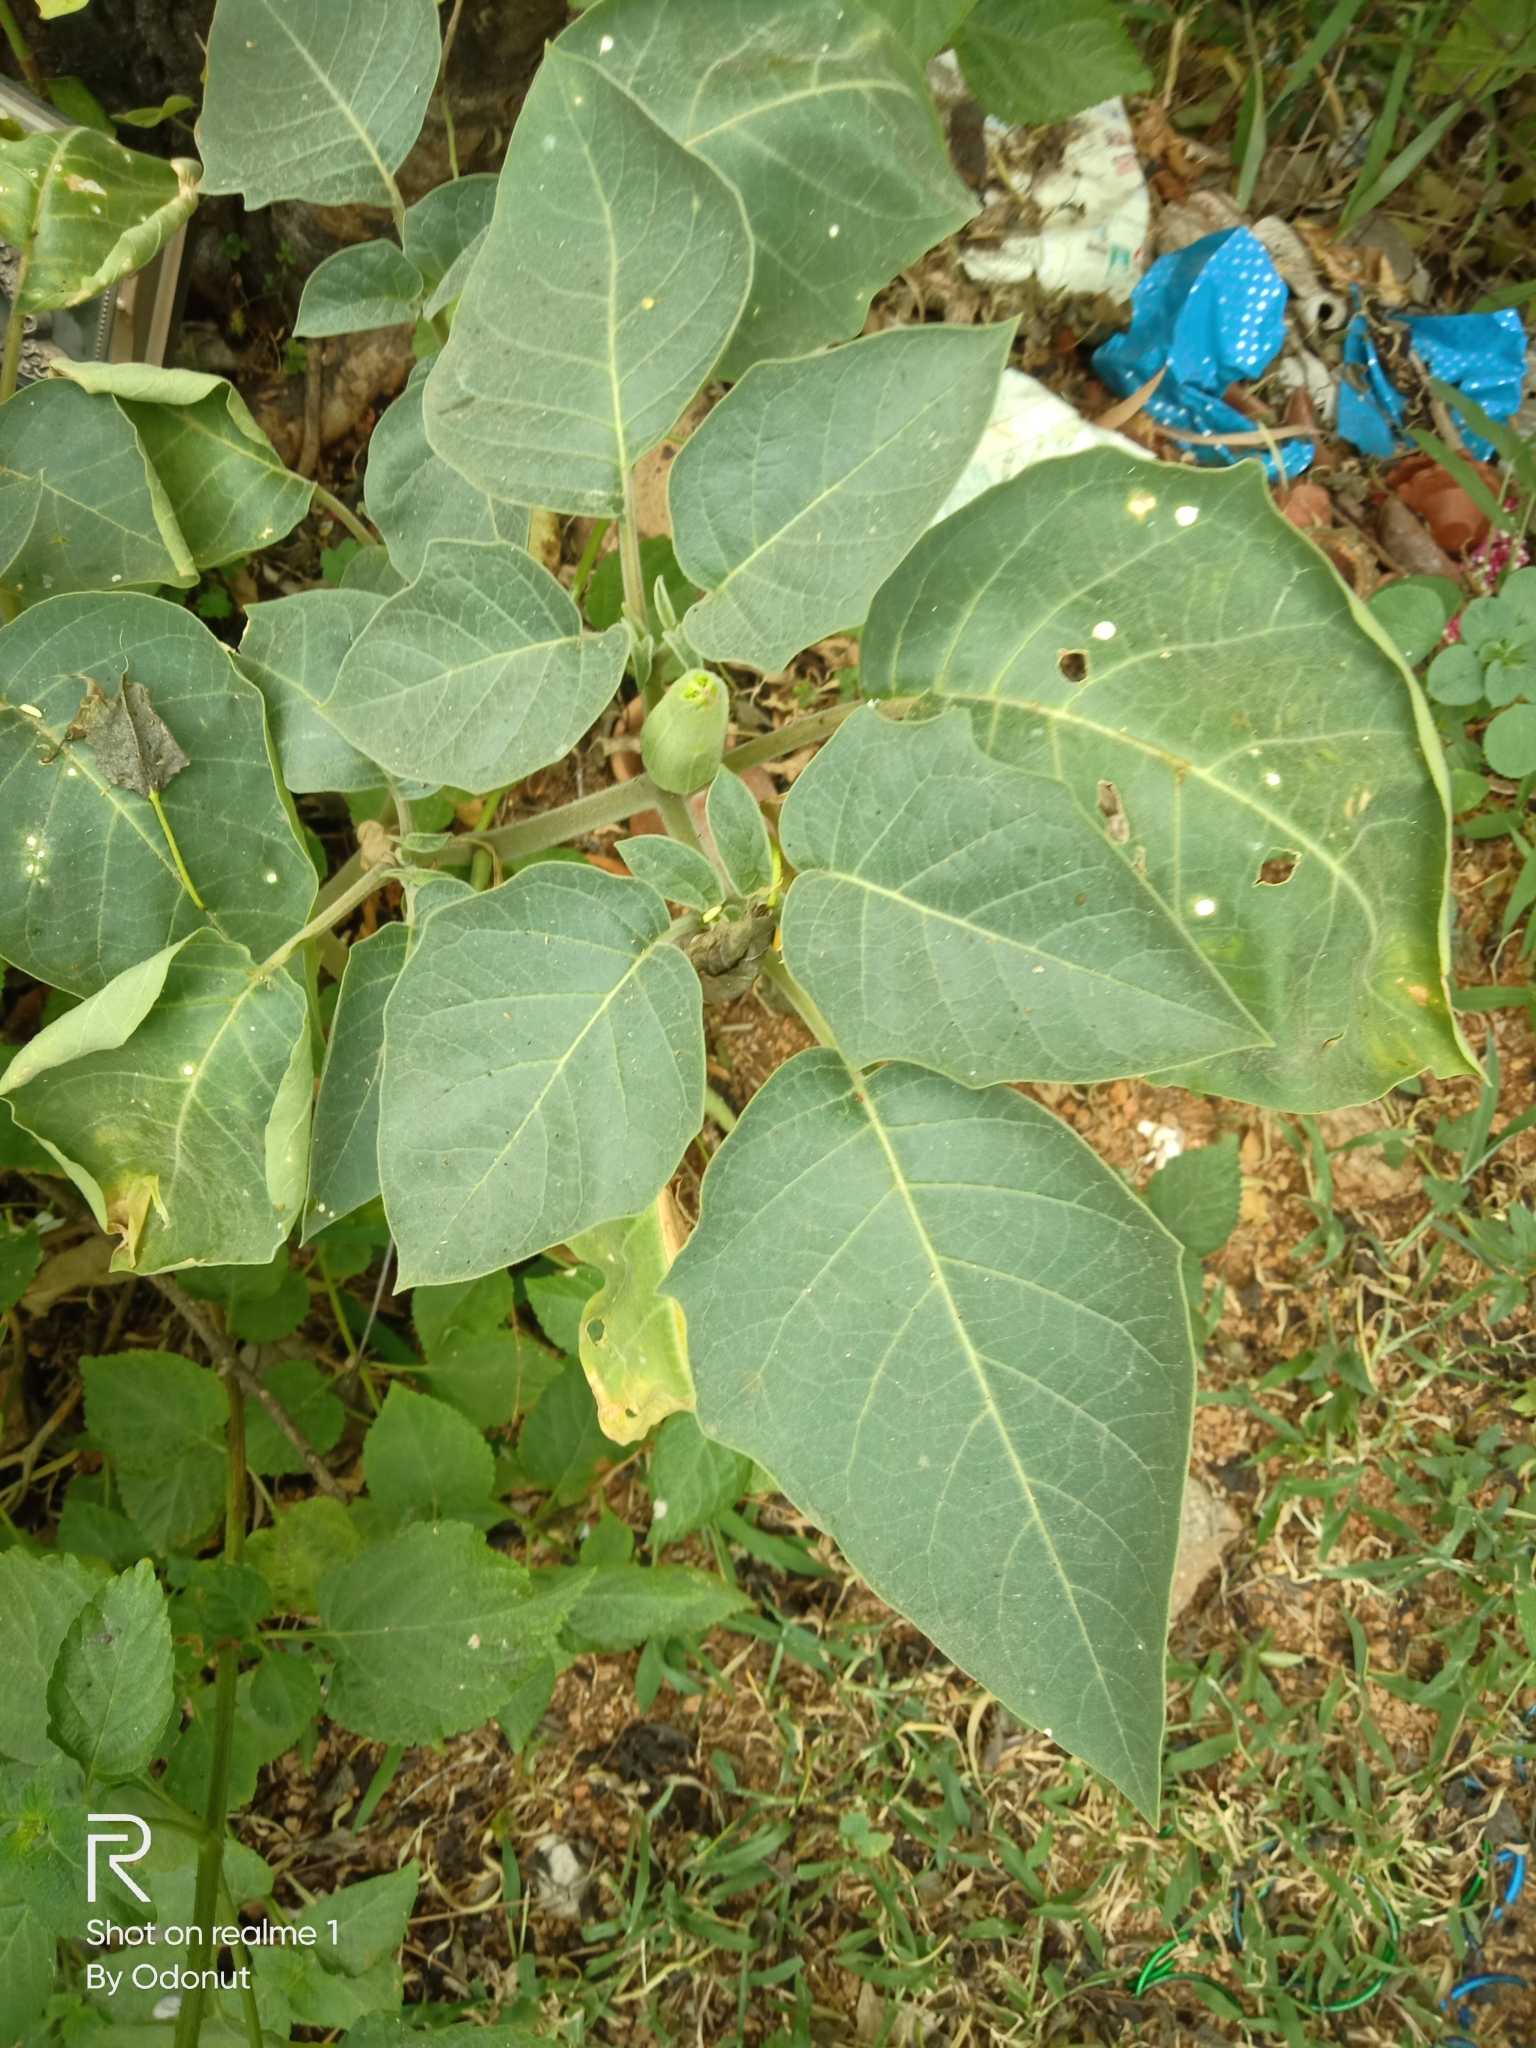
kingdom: Plantae
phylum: Tracheophyta
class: Magnoliopsida
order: Solanales
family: Solanaceae
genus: Datura
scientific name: Datura innoxia
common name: Downy thorn-apple
